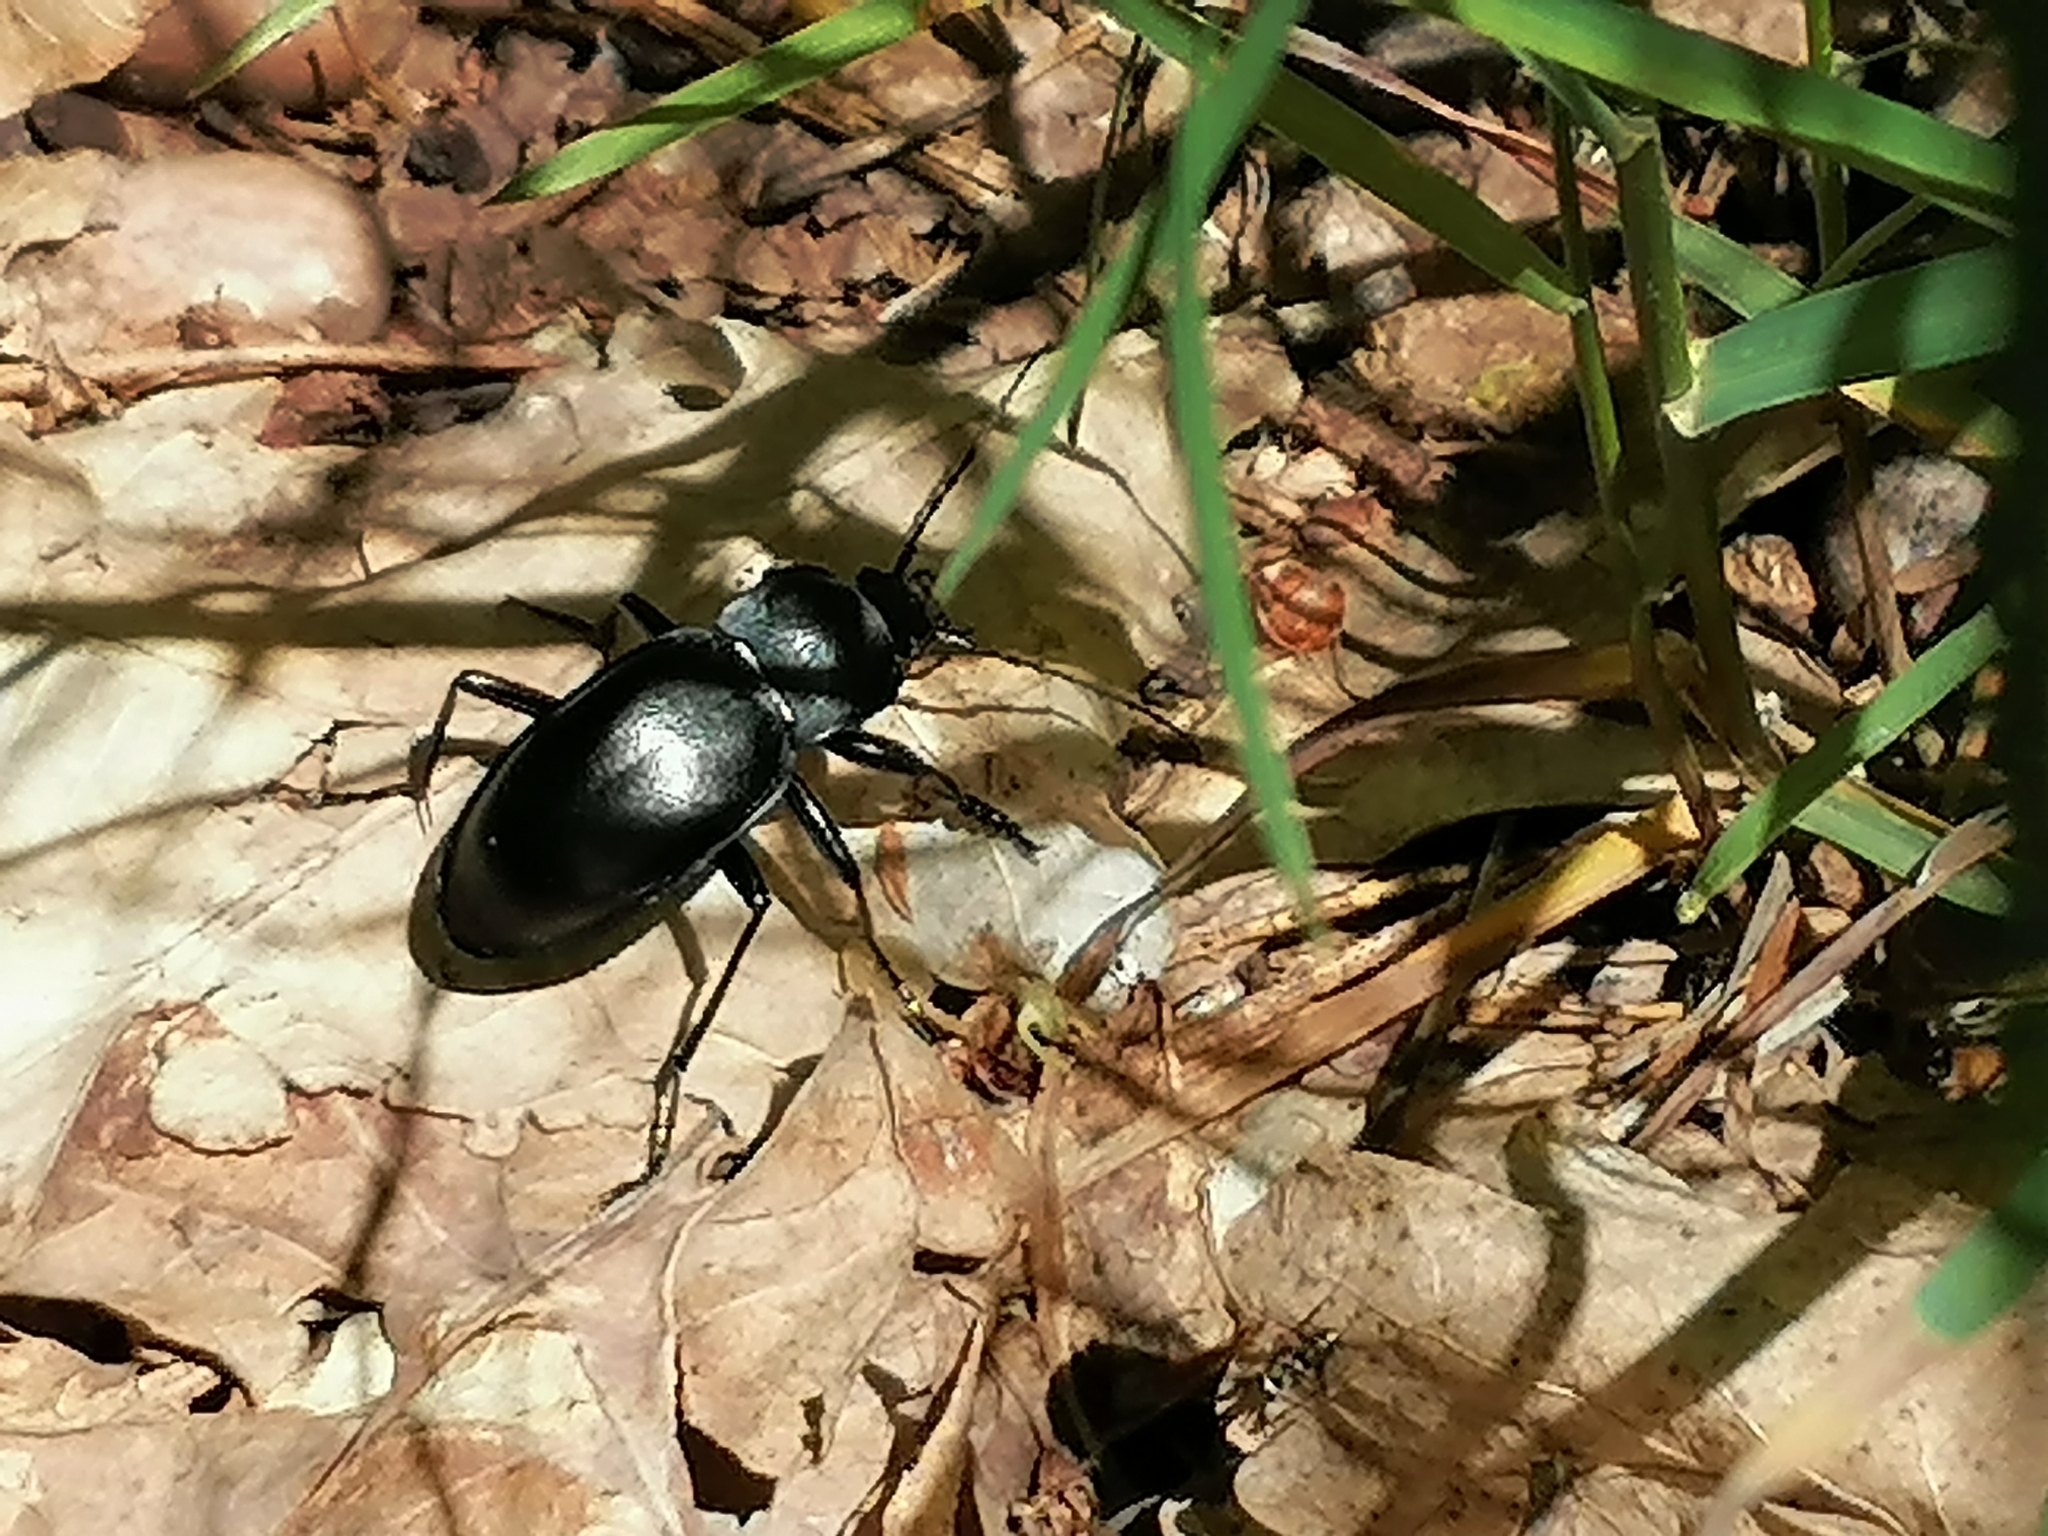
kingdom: Animalia
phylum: Arthropoda
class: Insecta
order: Coleoptera
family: Carabidae
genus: Carabus
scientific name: Carabus glabratus
